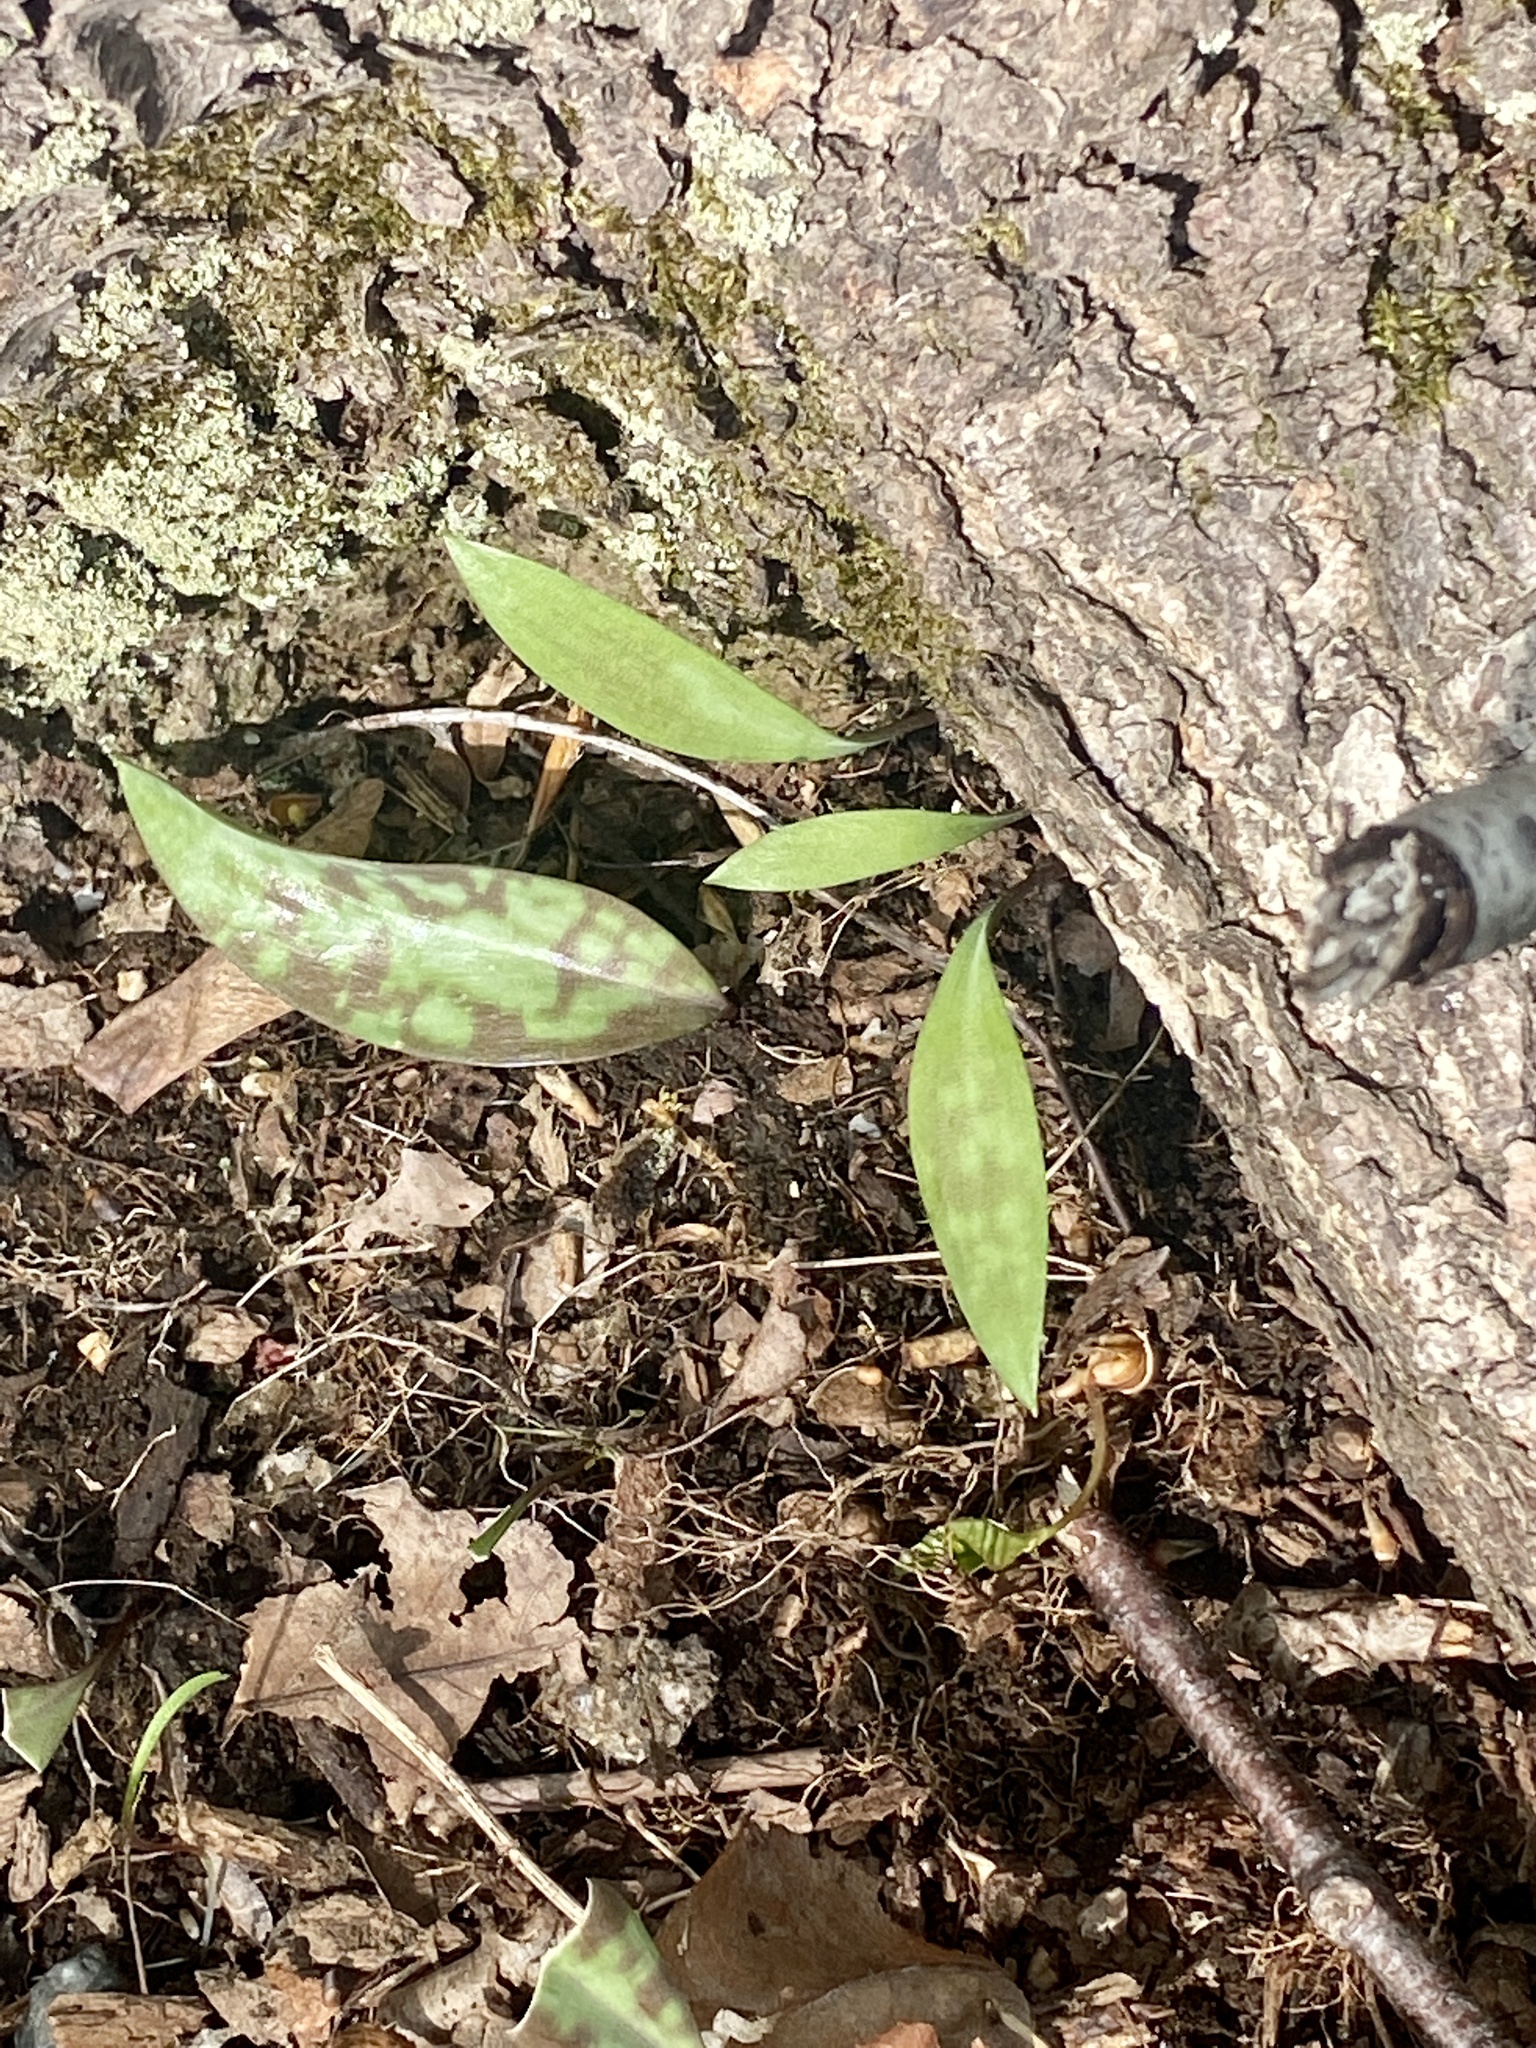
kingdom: Plantae
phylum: Tracheophyta
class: Liliopsida
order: Liliales
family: Liliaceae
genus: Erythronium
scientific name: Erythronium americanum
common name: Yellow adder's-tongue
